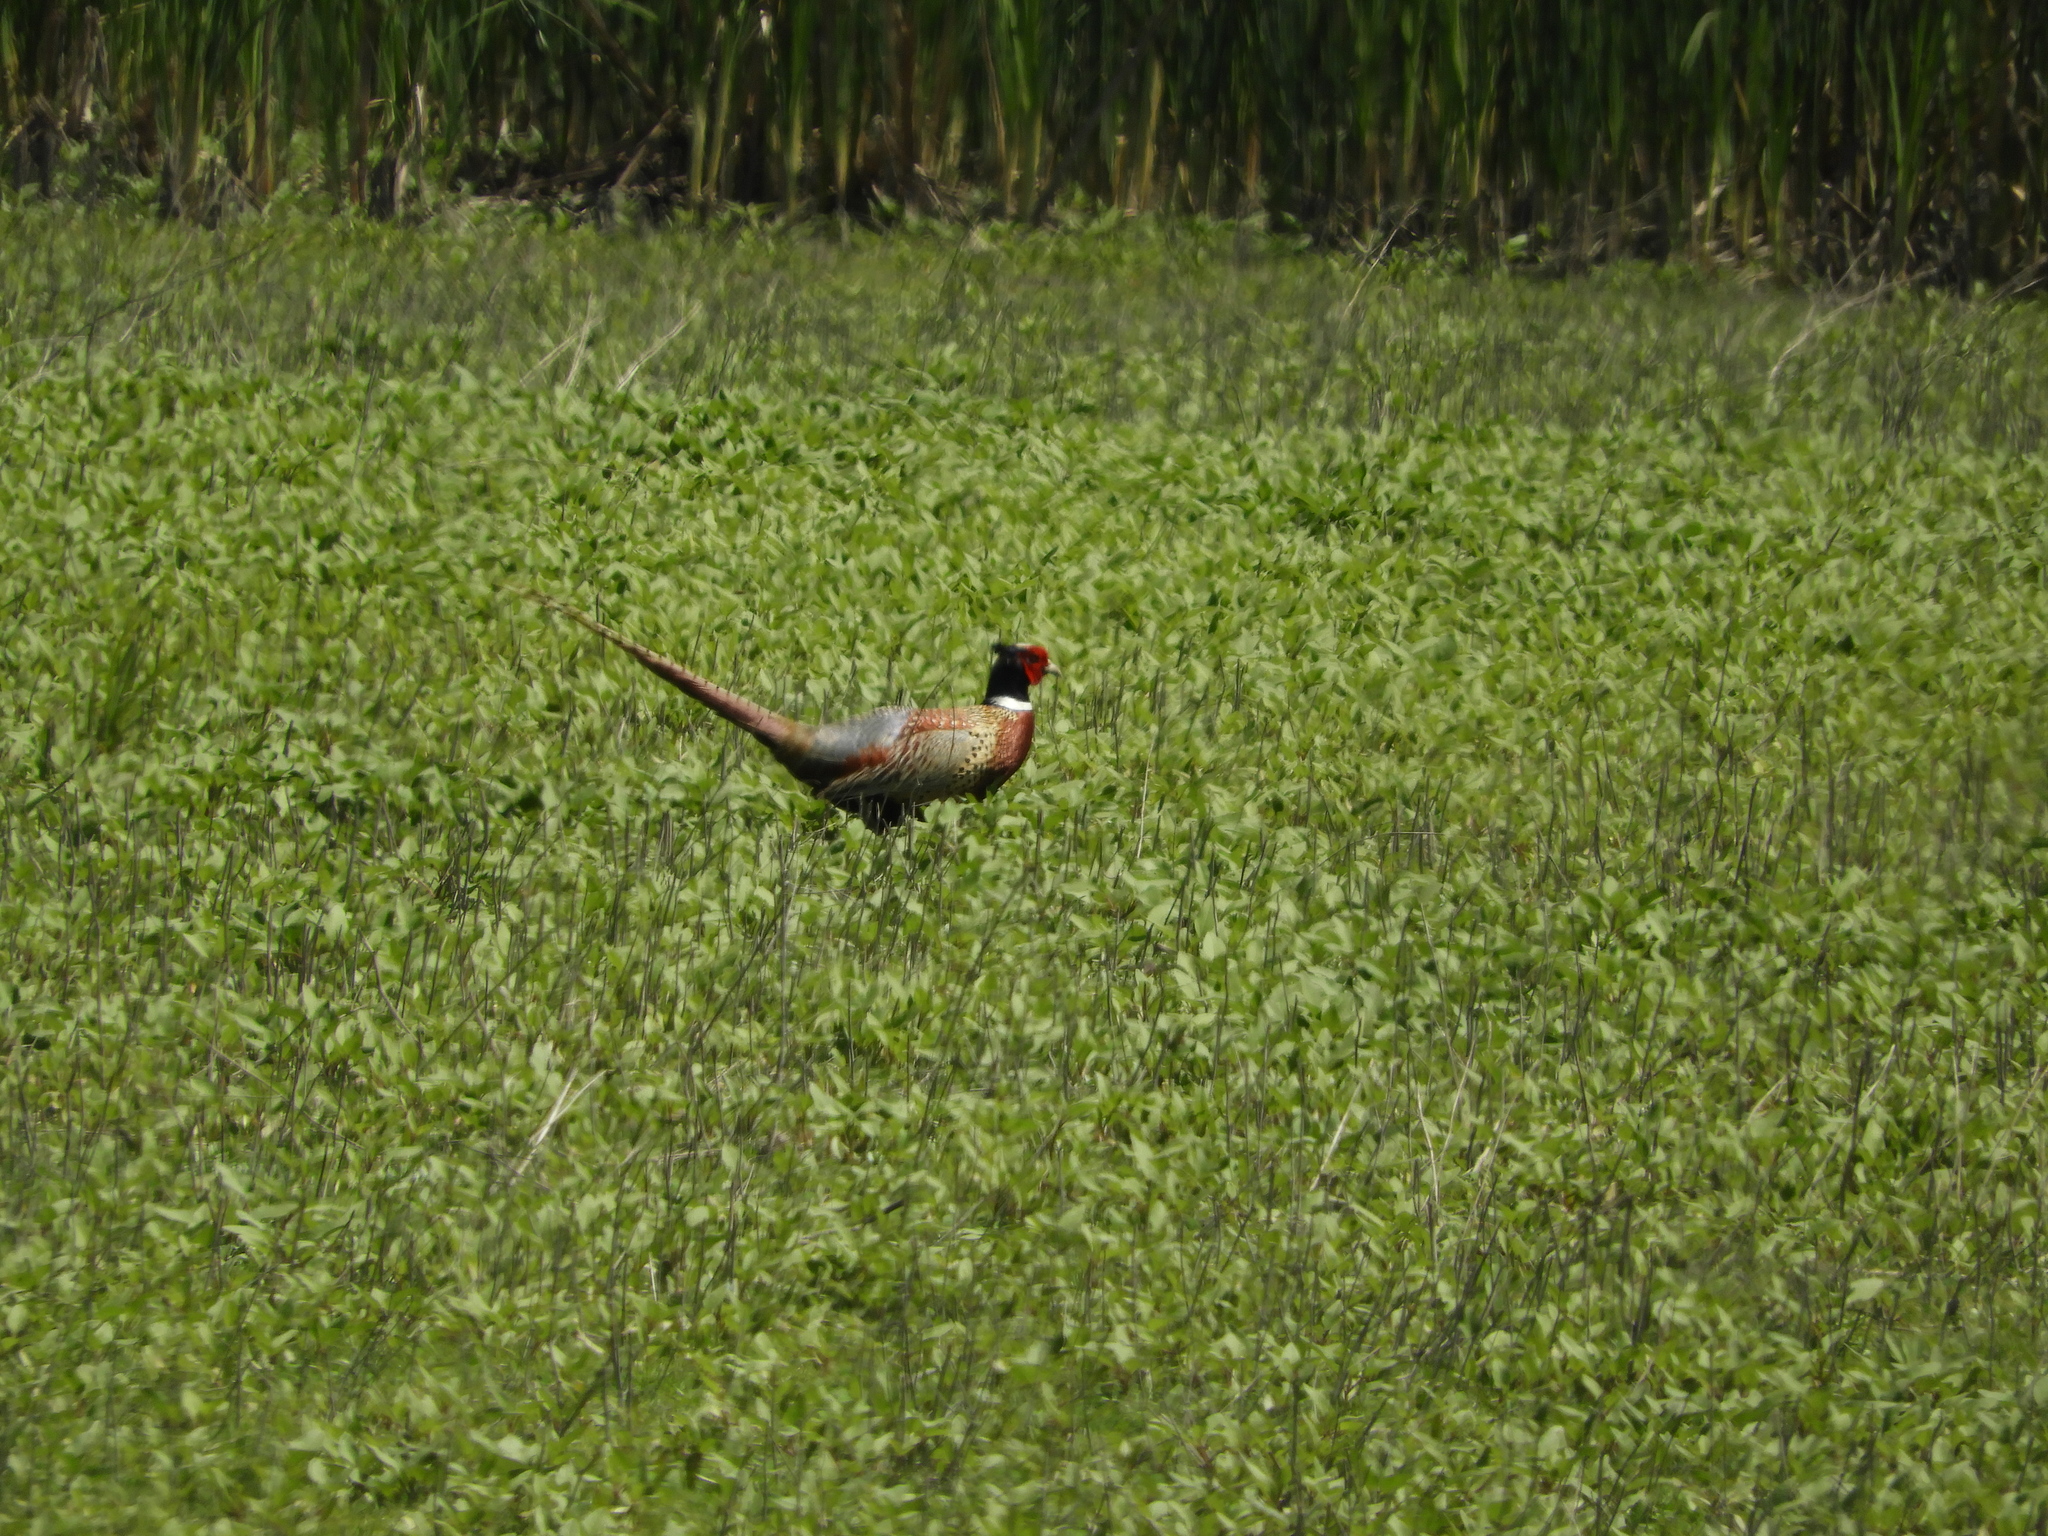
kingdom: Animalia
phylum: Chordata
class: Aves
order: Galliformes
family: Phasianidae
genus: Phasianus
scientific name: Phasianus colchicus
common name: Common pheasant
